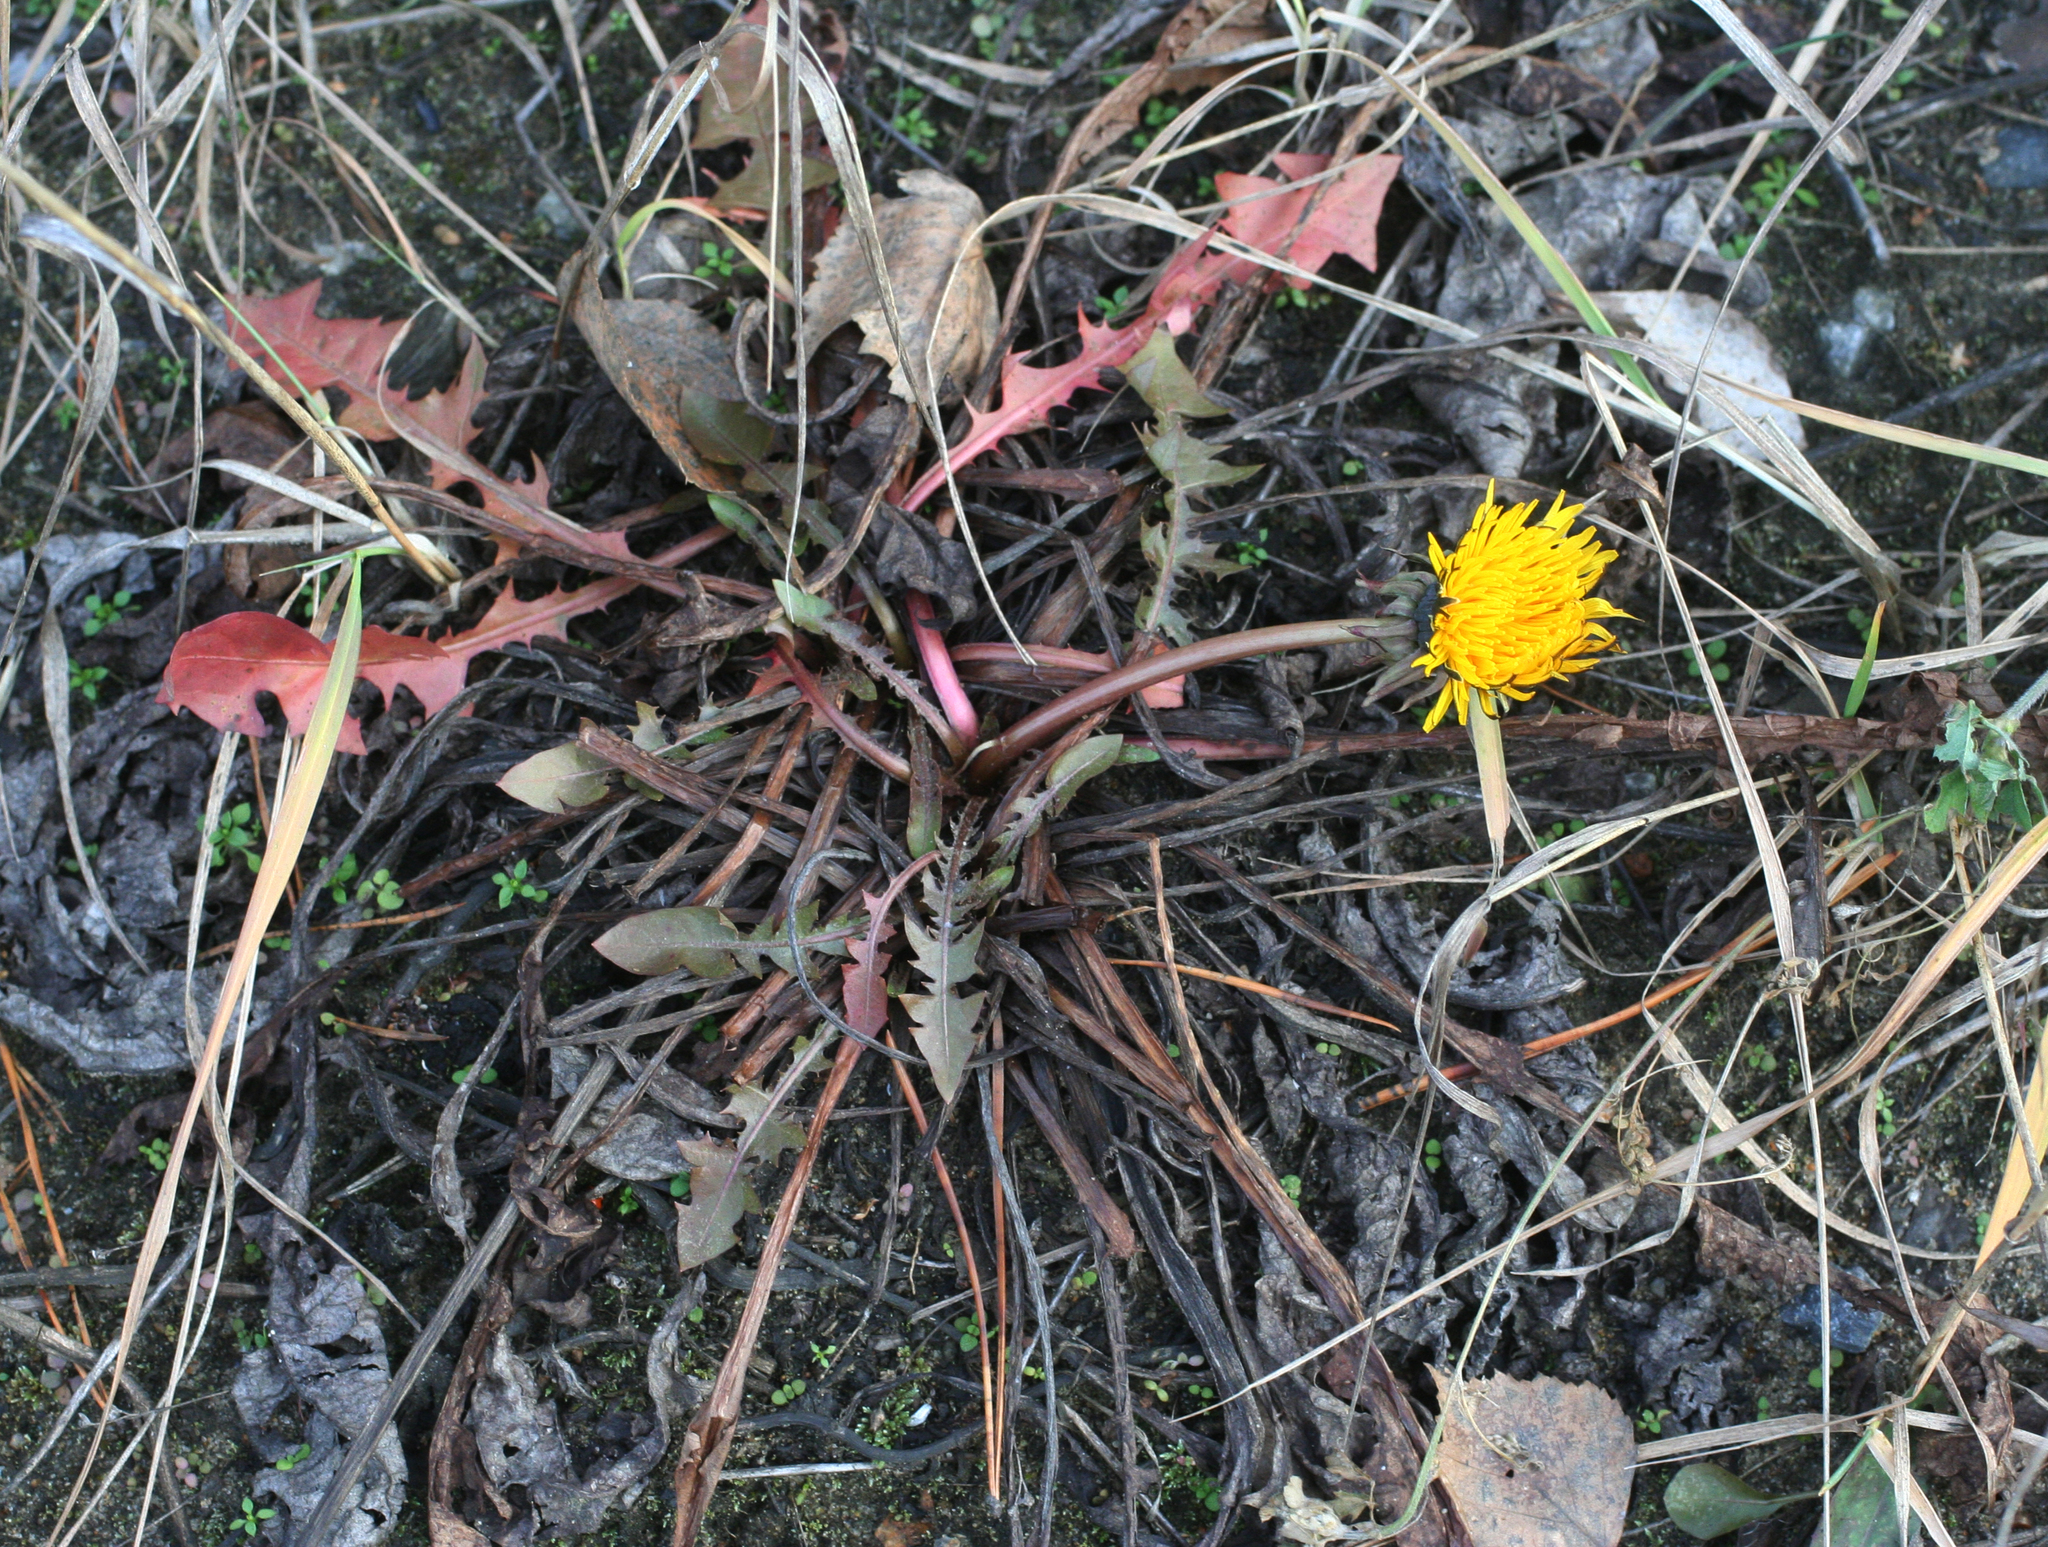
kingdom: Plantae
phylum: Tracheophyta
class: Magnoliopsida
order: Asterales
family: Asteraceae
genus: Taraxacum
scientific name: Taraxacum officinale
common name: Common dandelion
